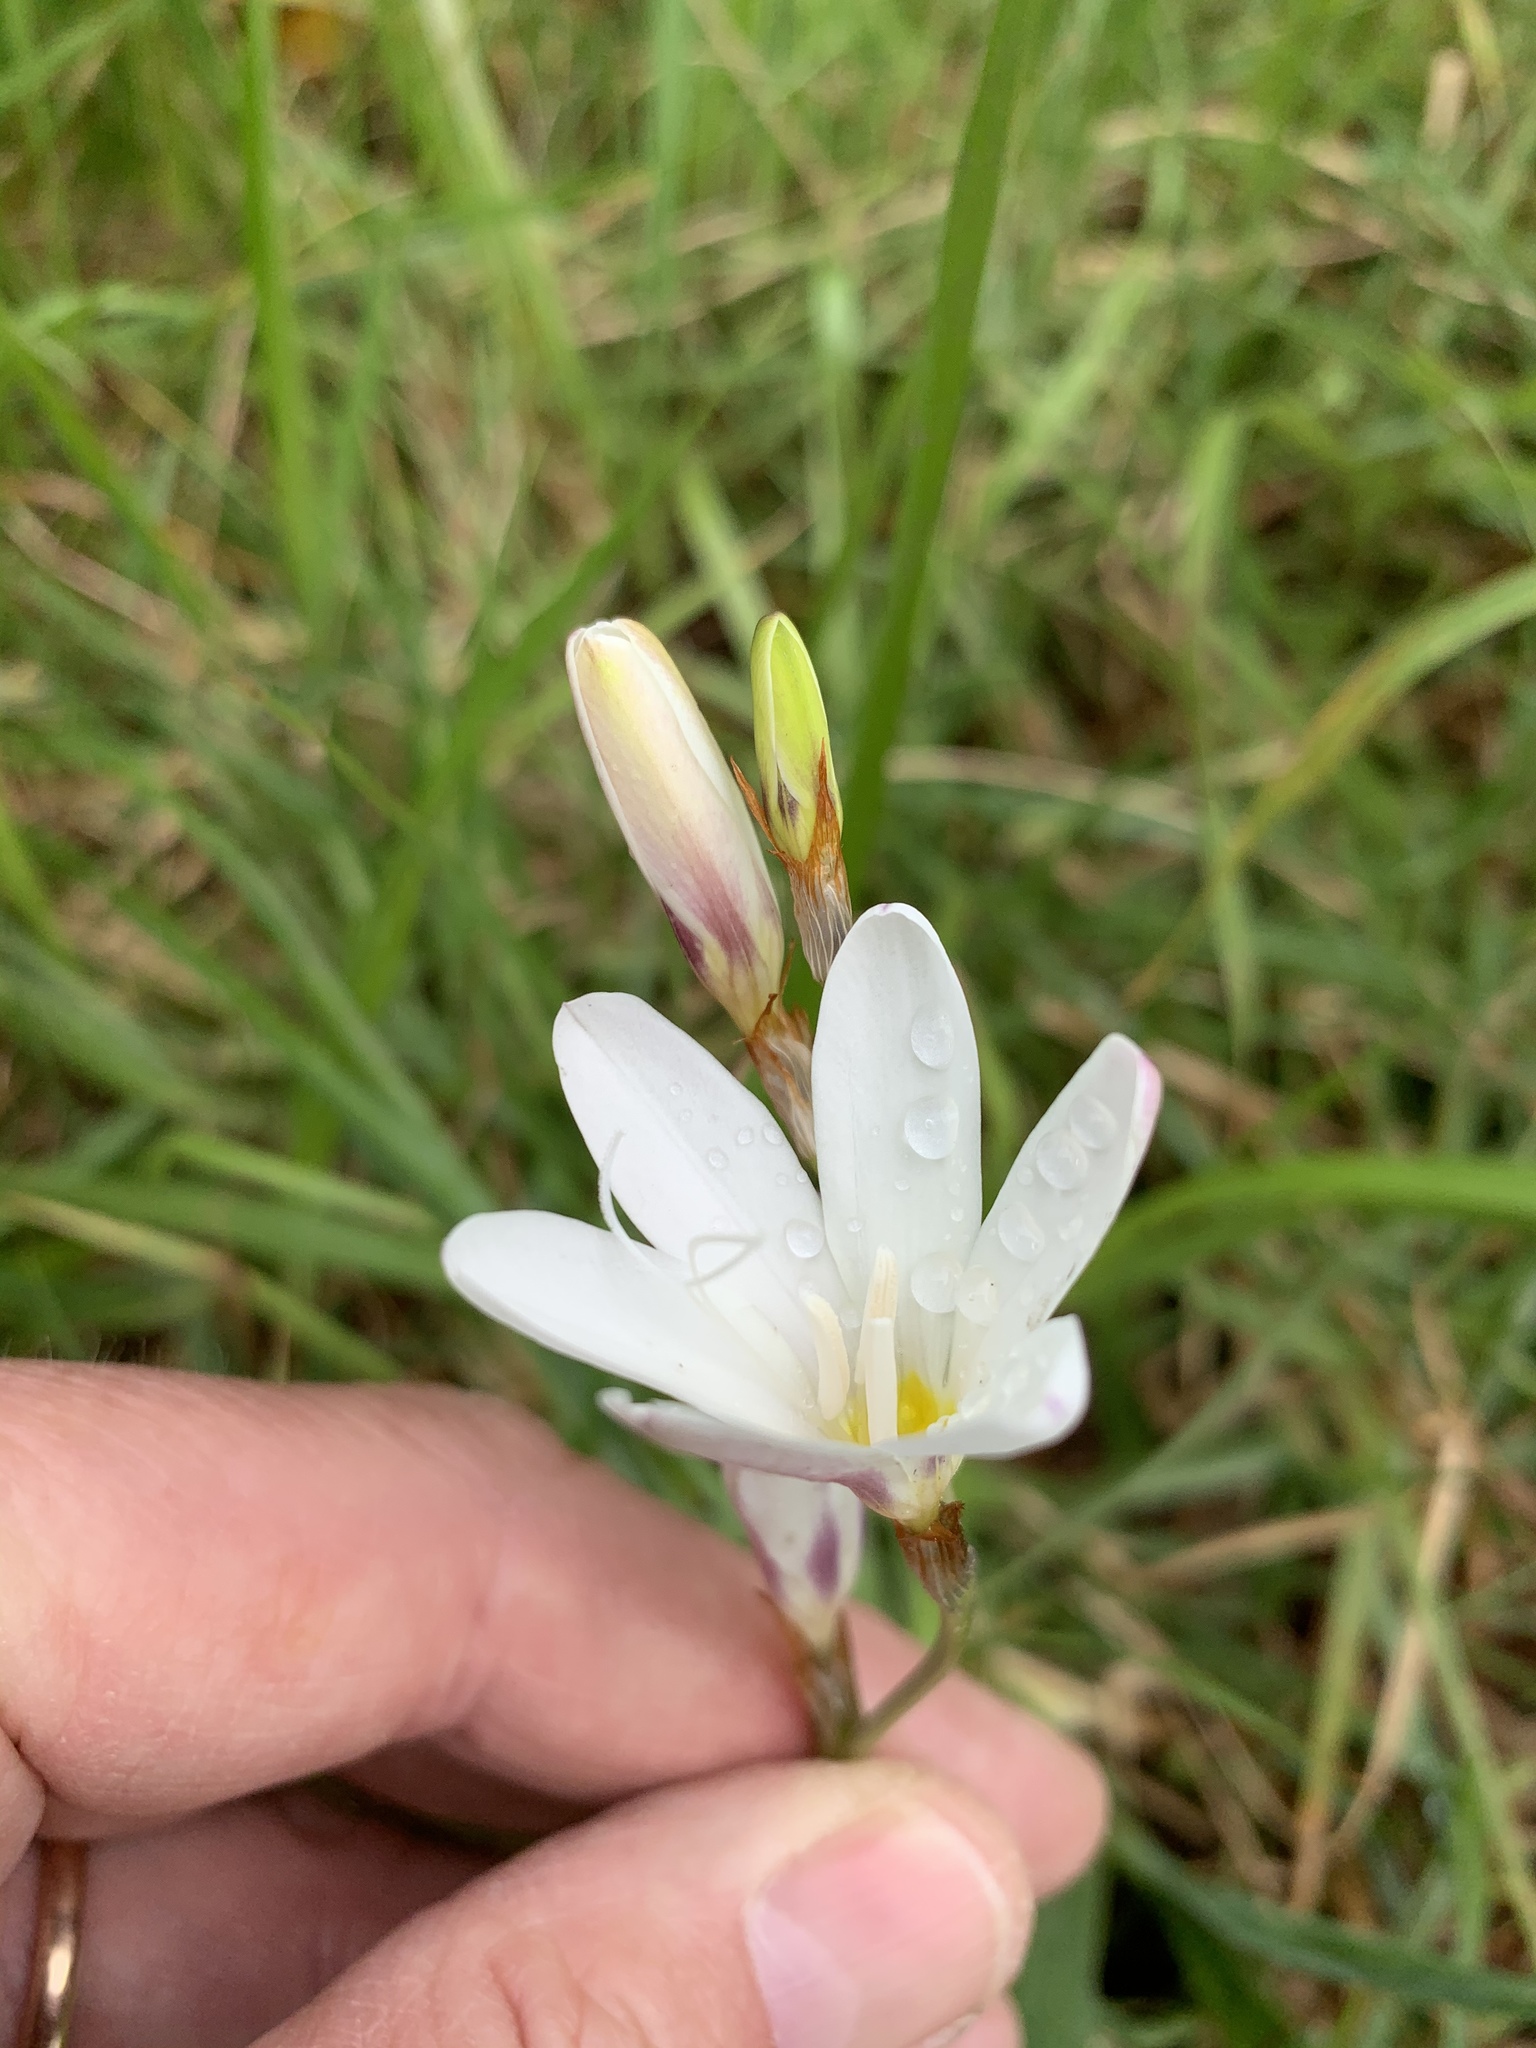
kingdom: Plantae
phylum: Tracheophyta
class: Liliopsida
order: Asparagales
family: Iridaceae
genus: Sparaxis
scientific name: Sparaxis bulbifera
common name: Harlequin-flower
